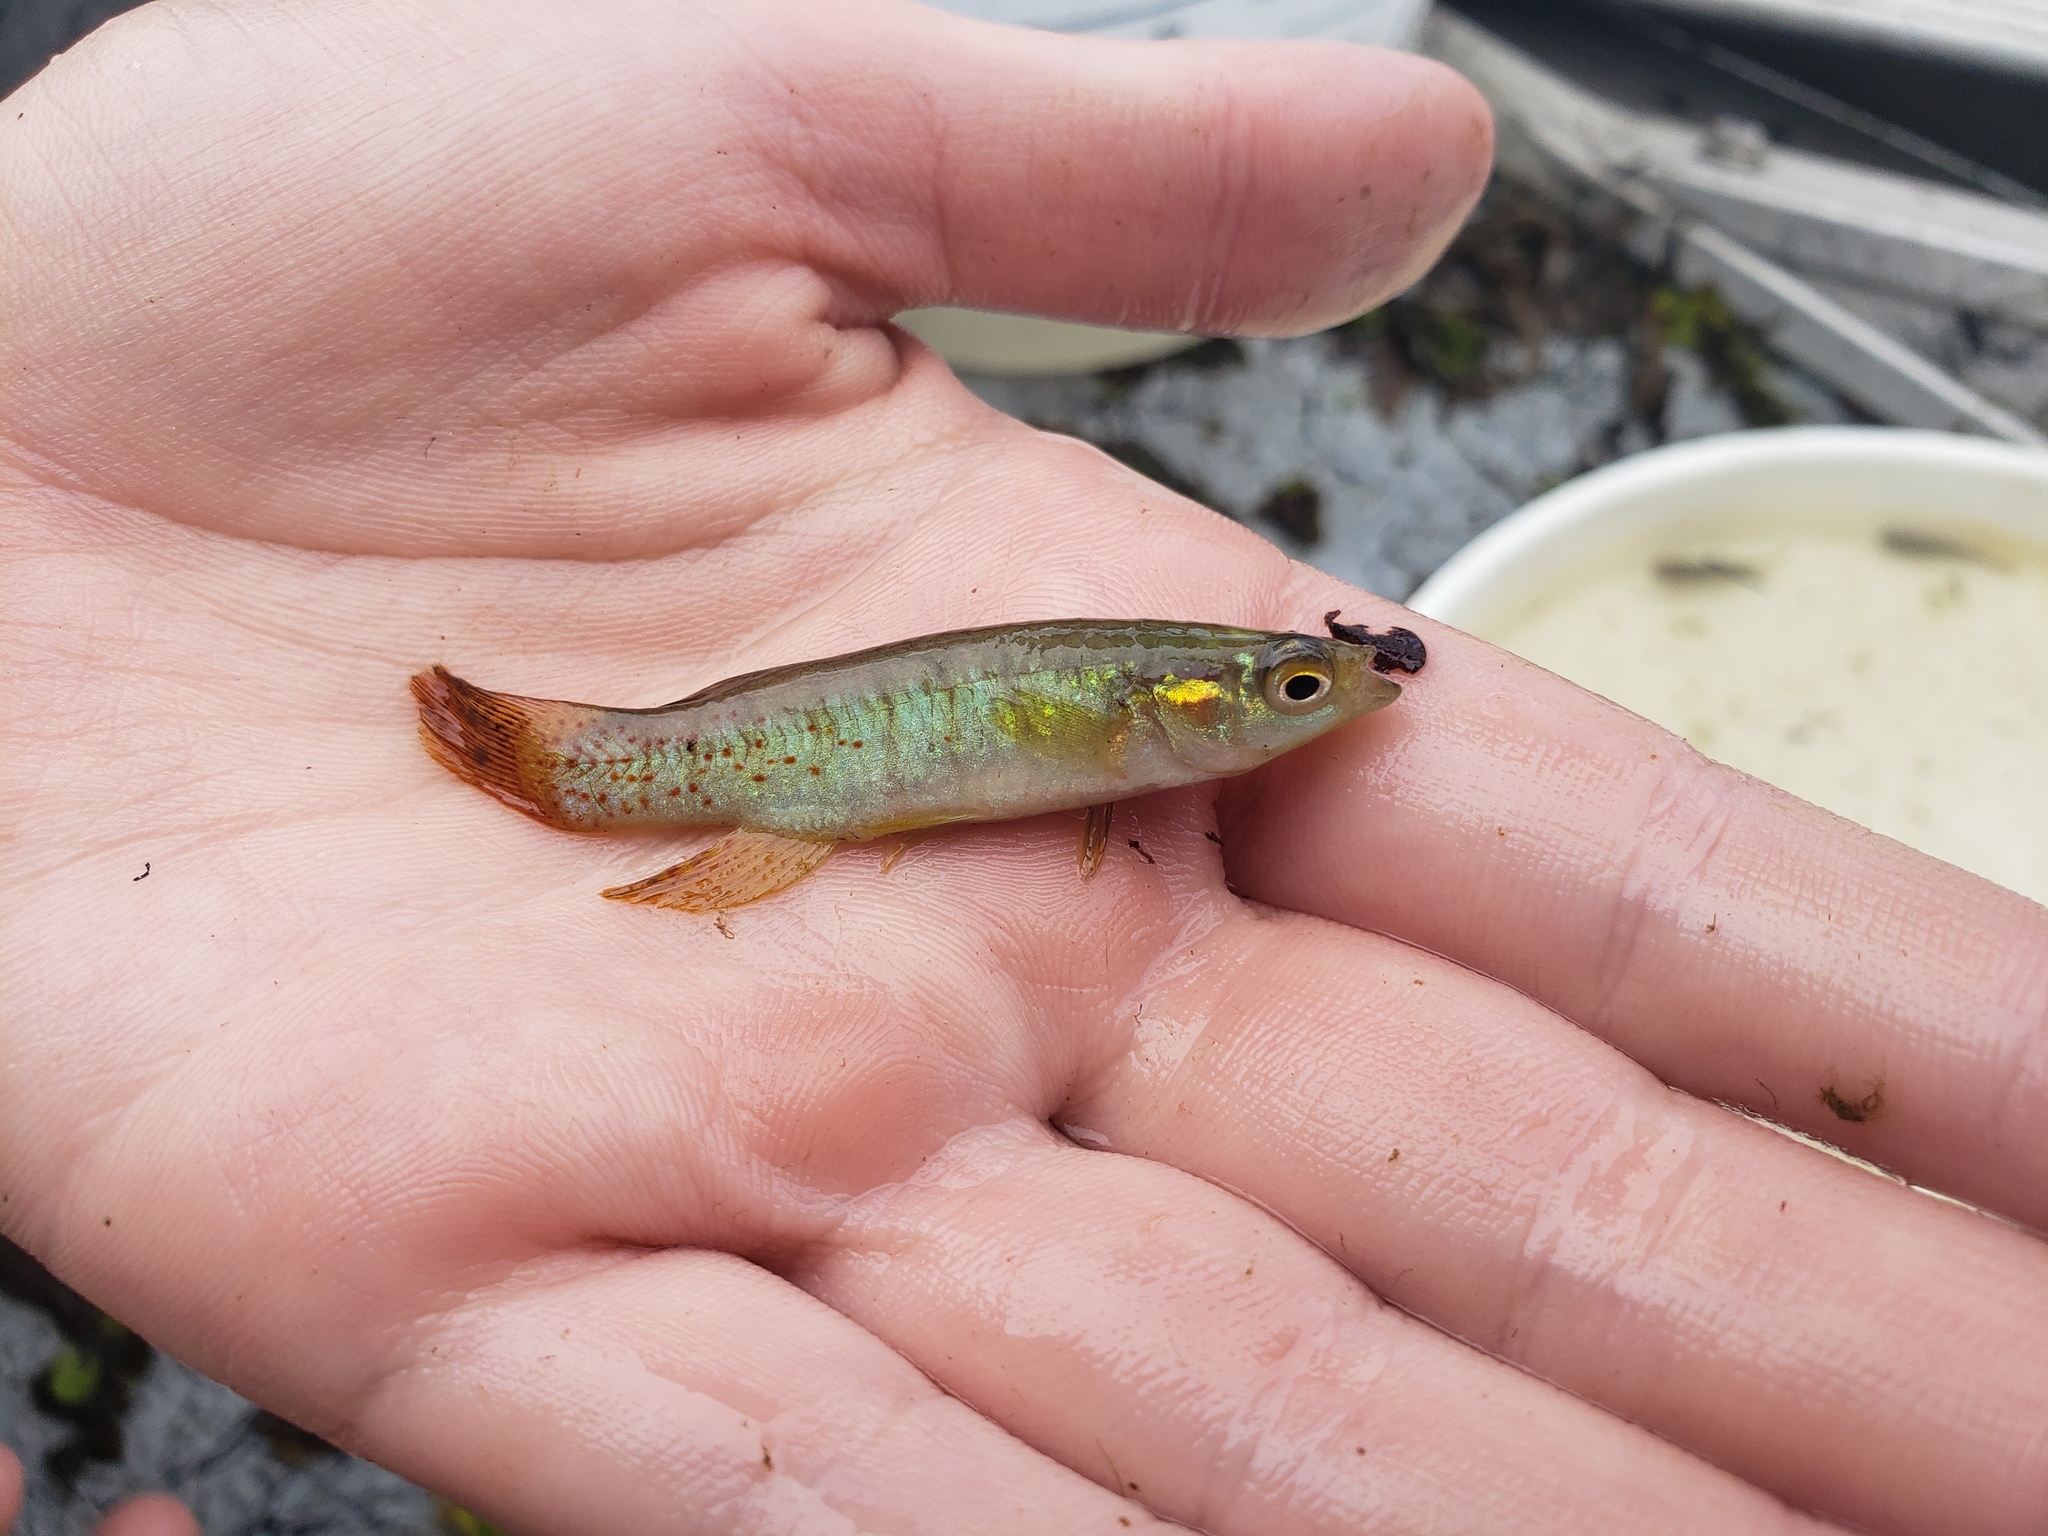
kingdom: Animalia
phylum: Chordata
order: Cyprinodontiformes
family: Fundulidae
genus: Fundulus
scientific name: Fundulus chrysotus
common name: Golden topminnow
